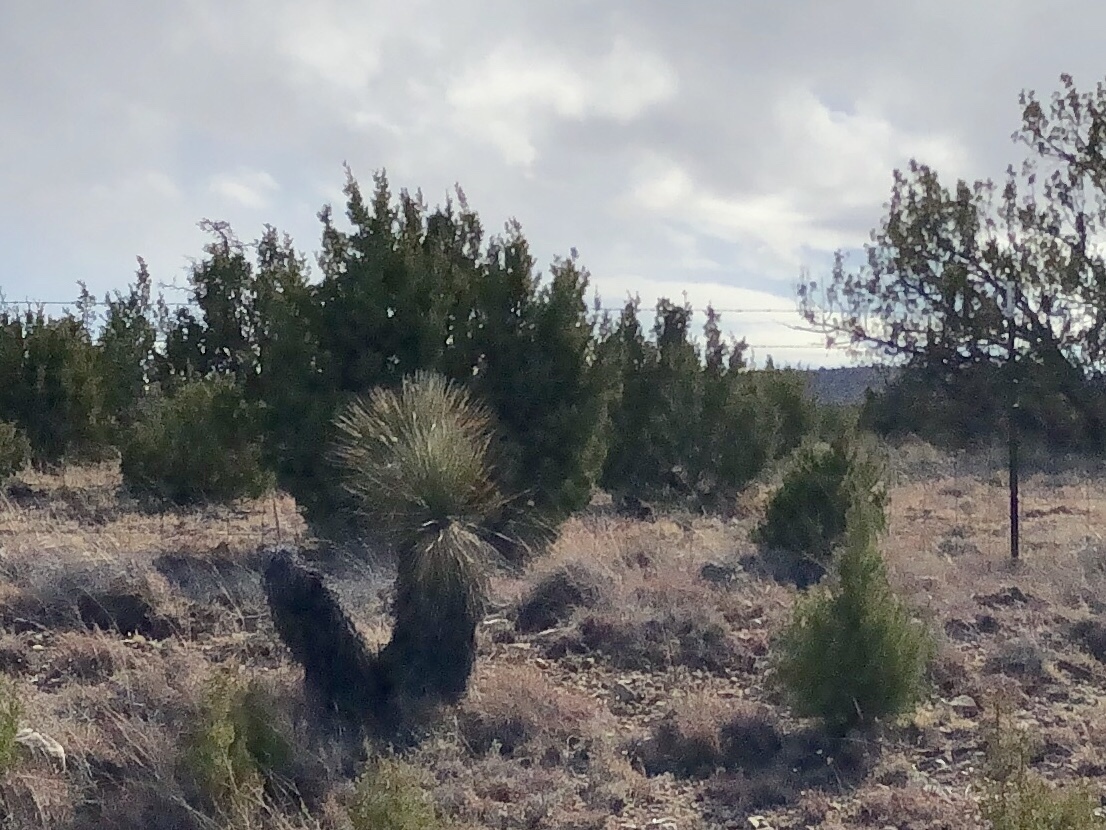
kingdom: Plantae
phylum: Tracheophyta
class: Liliopsida
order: Asparagales
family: Asparagaceae
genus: Yucca
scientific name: Yucca elata
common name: Palmella
